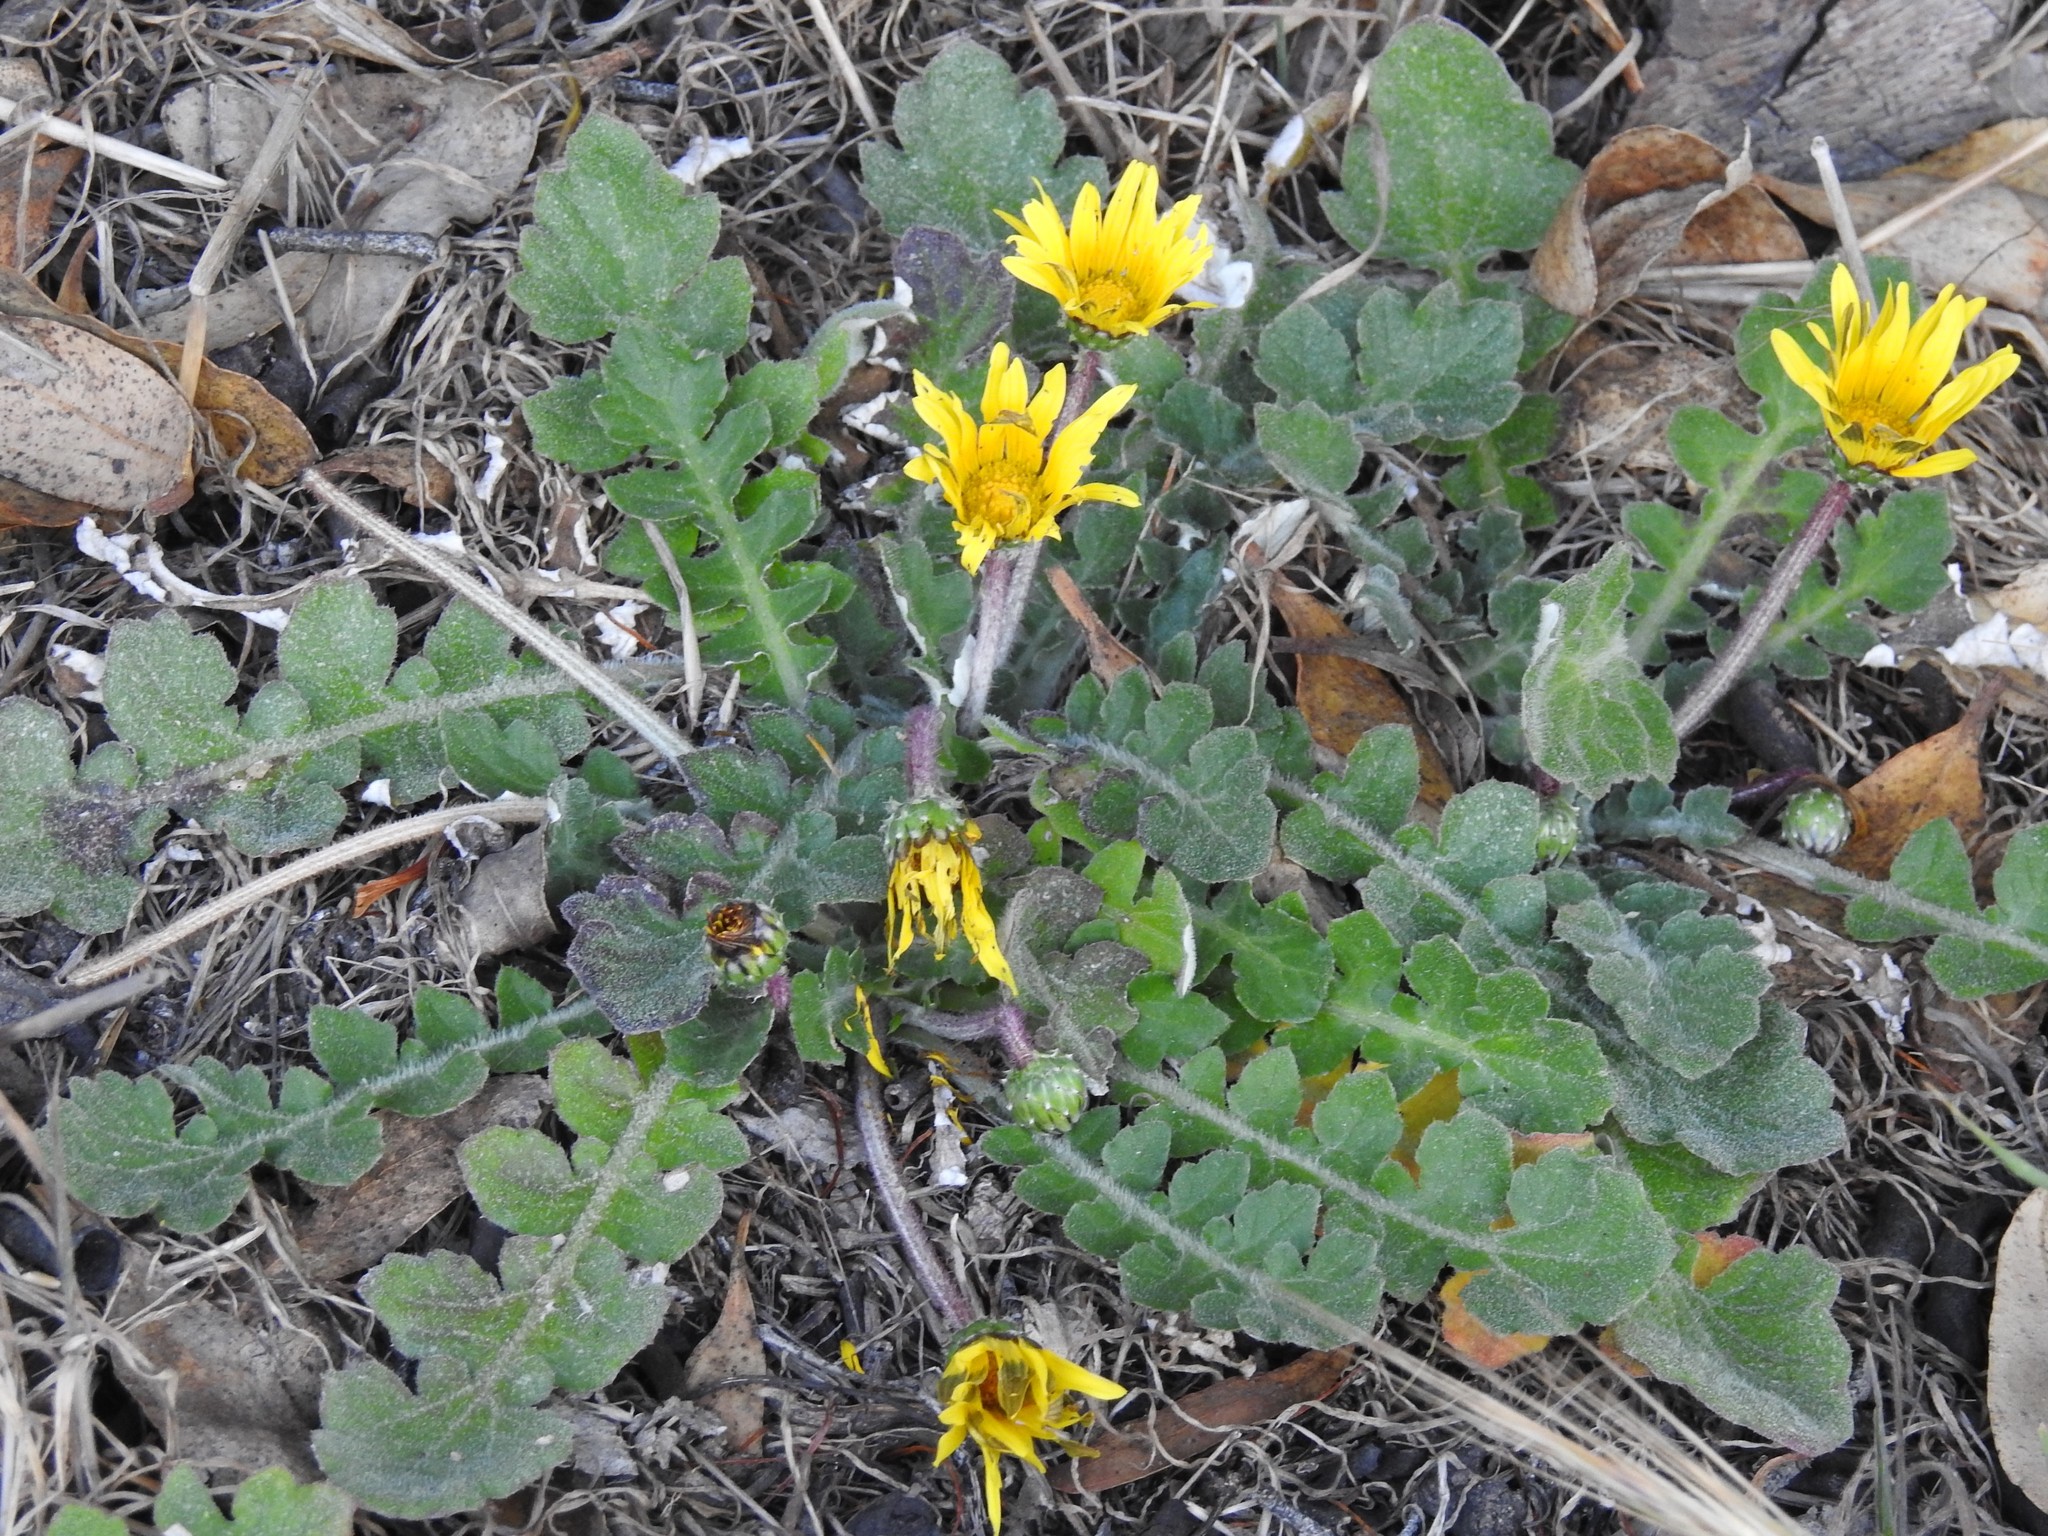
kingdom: Plantae
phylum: Tracheophyta
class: Magnoliopsida
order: Asterales
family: Asteraceae
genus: Arctotheca
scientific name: Arctotheca prostrata
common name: Capeweed
